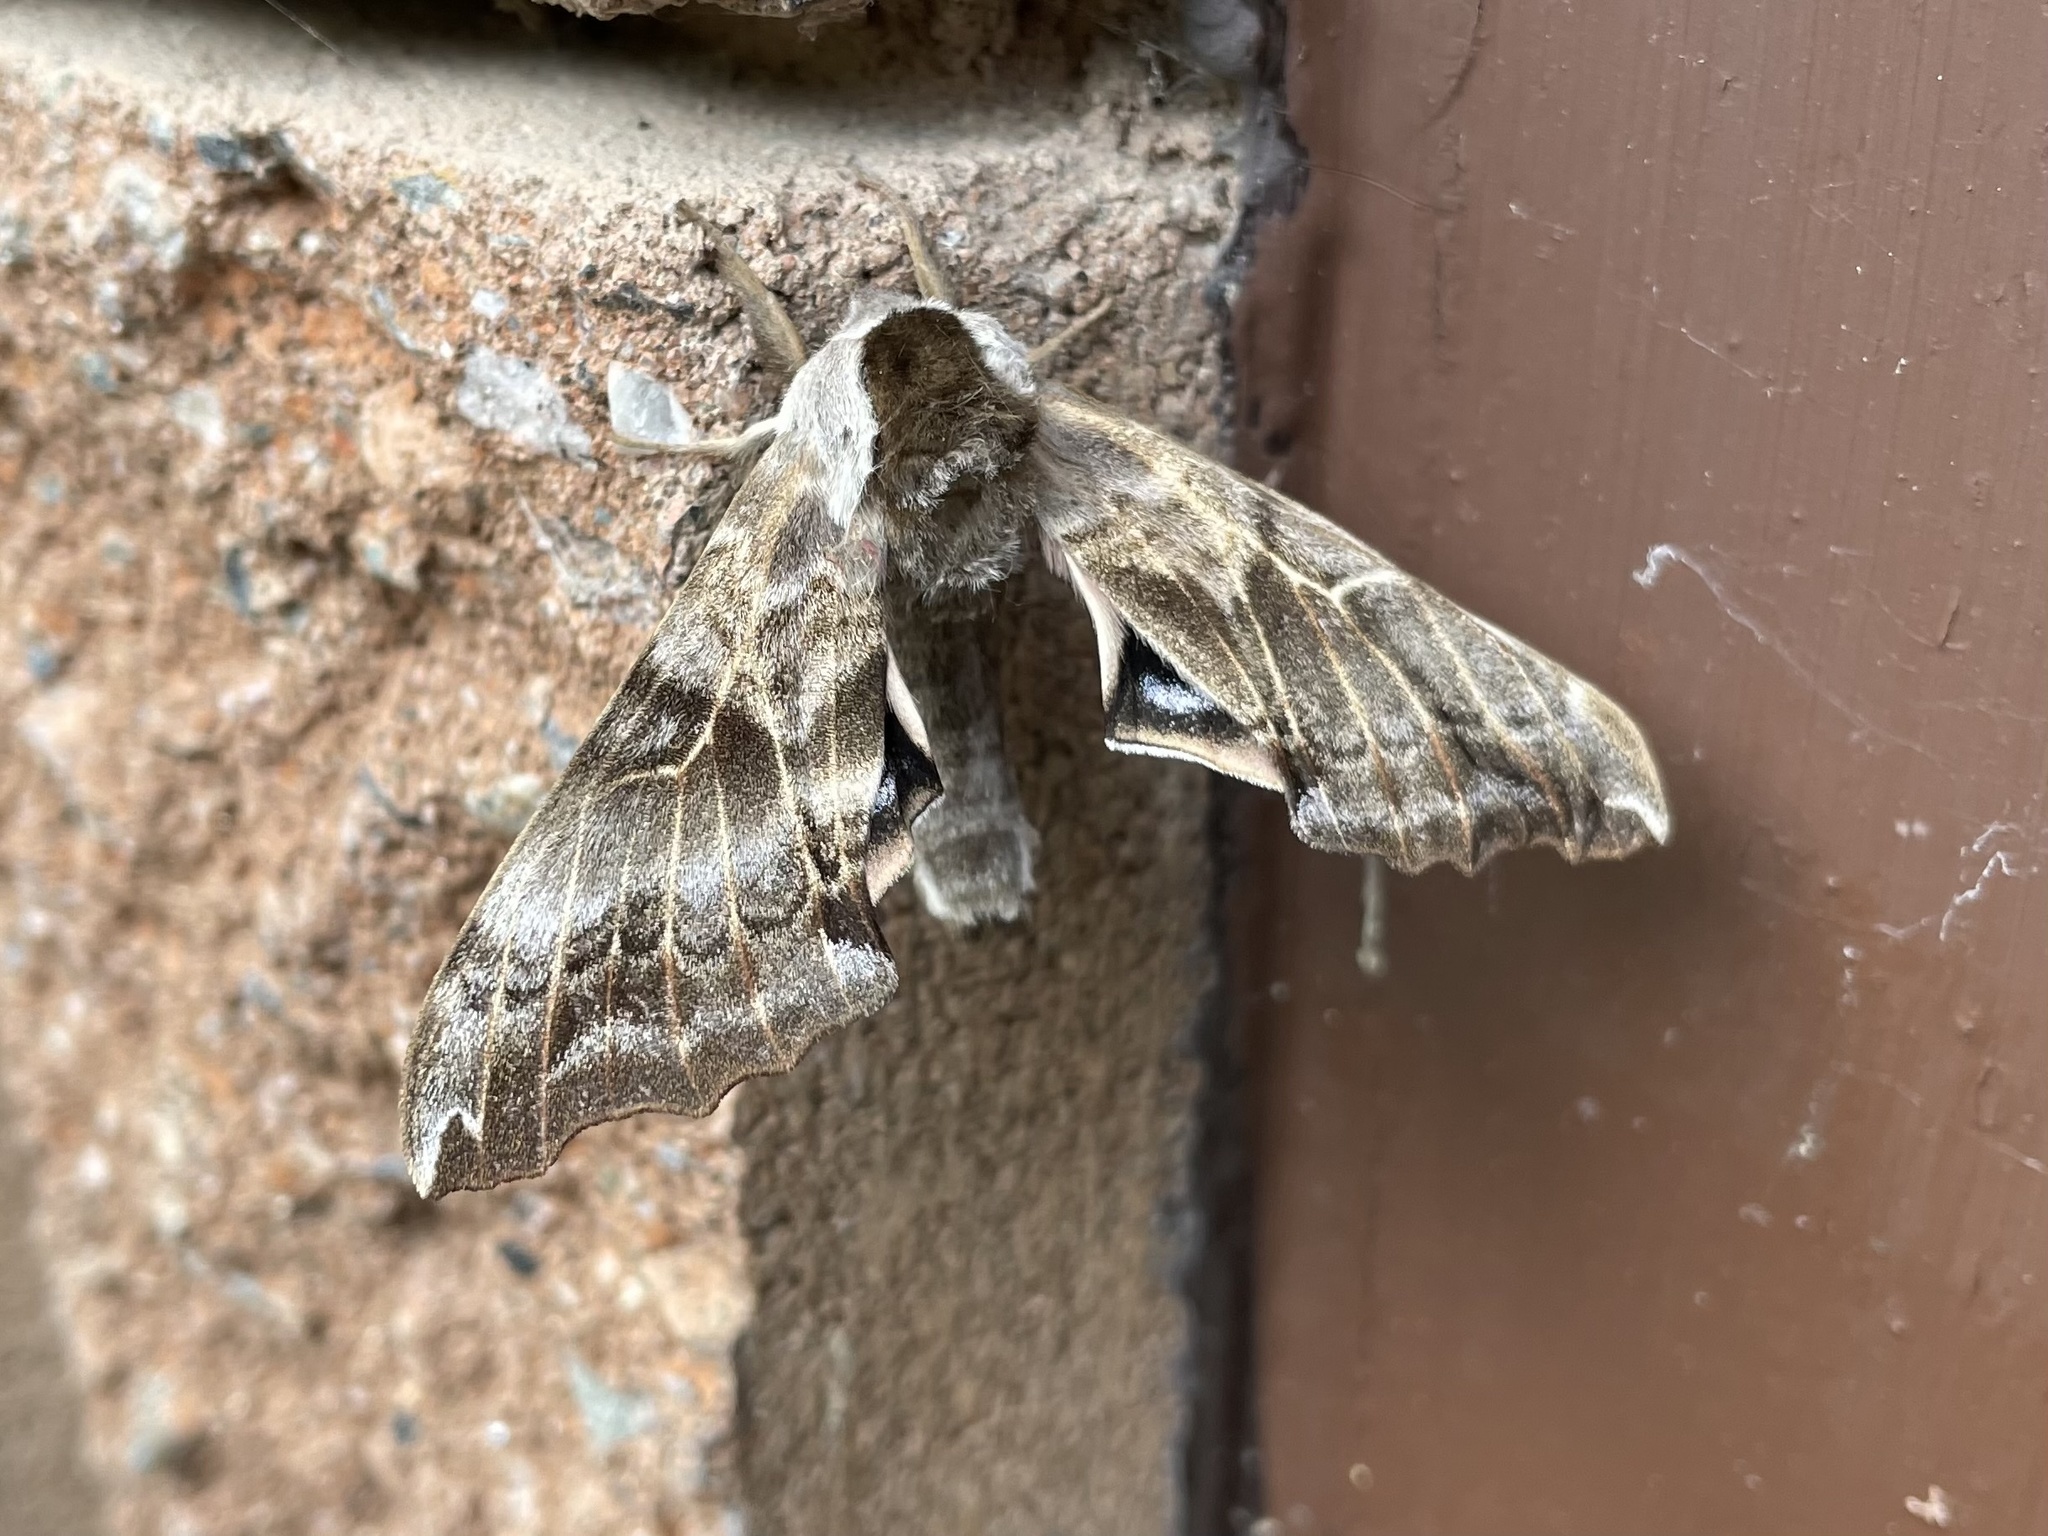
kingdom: Animalia
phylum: Arthropoda
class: Insecta
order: Lepidoptera
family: Sphingidae
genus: Smerinthus
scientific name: Smerinthus cerisyi
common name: Cerisy's sphinx moth
